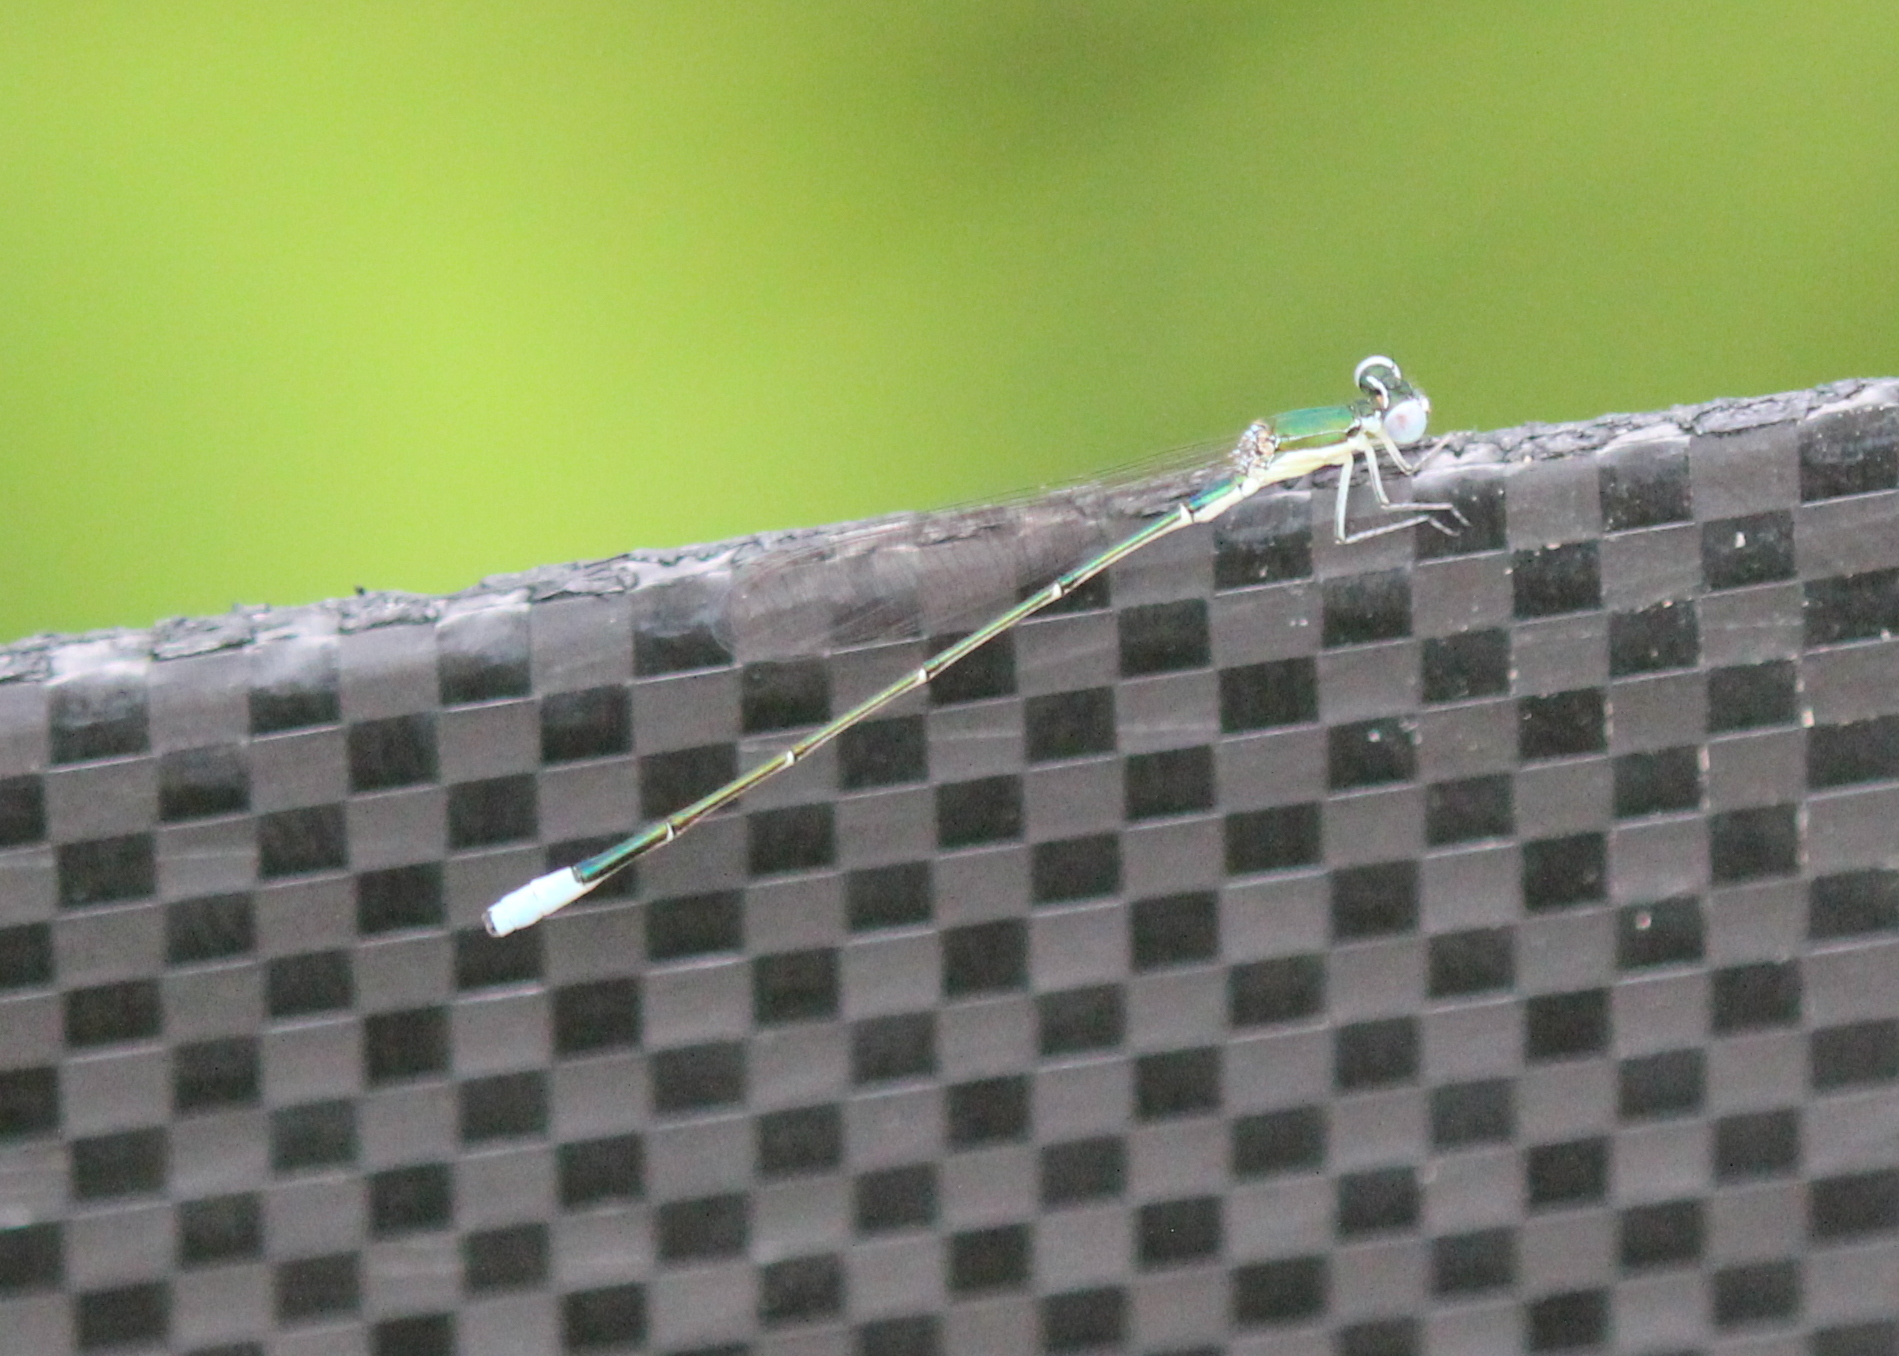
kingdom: Animalia
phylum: Arthropoda
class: Insecta
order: Odonata
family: Coenagrionidae
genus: Nehalennia
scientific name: Nehalennia gracilis
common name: Sphagnum sprite
